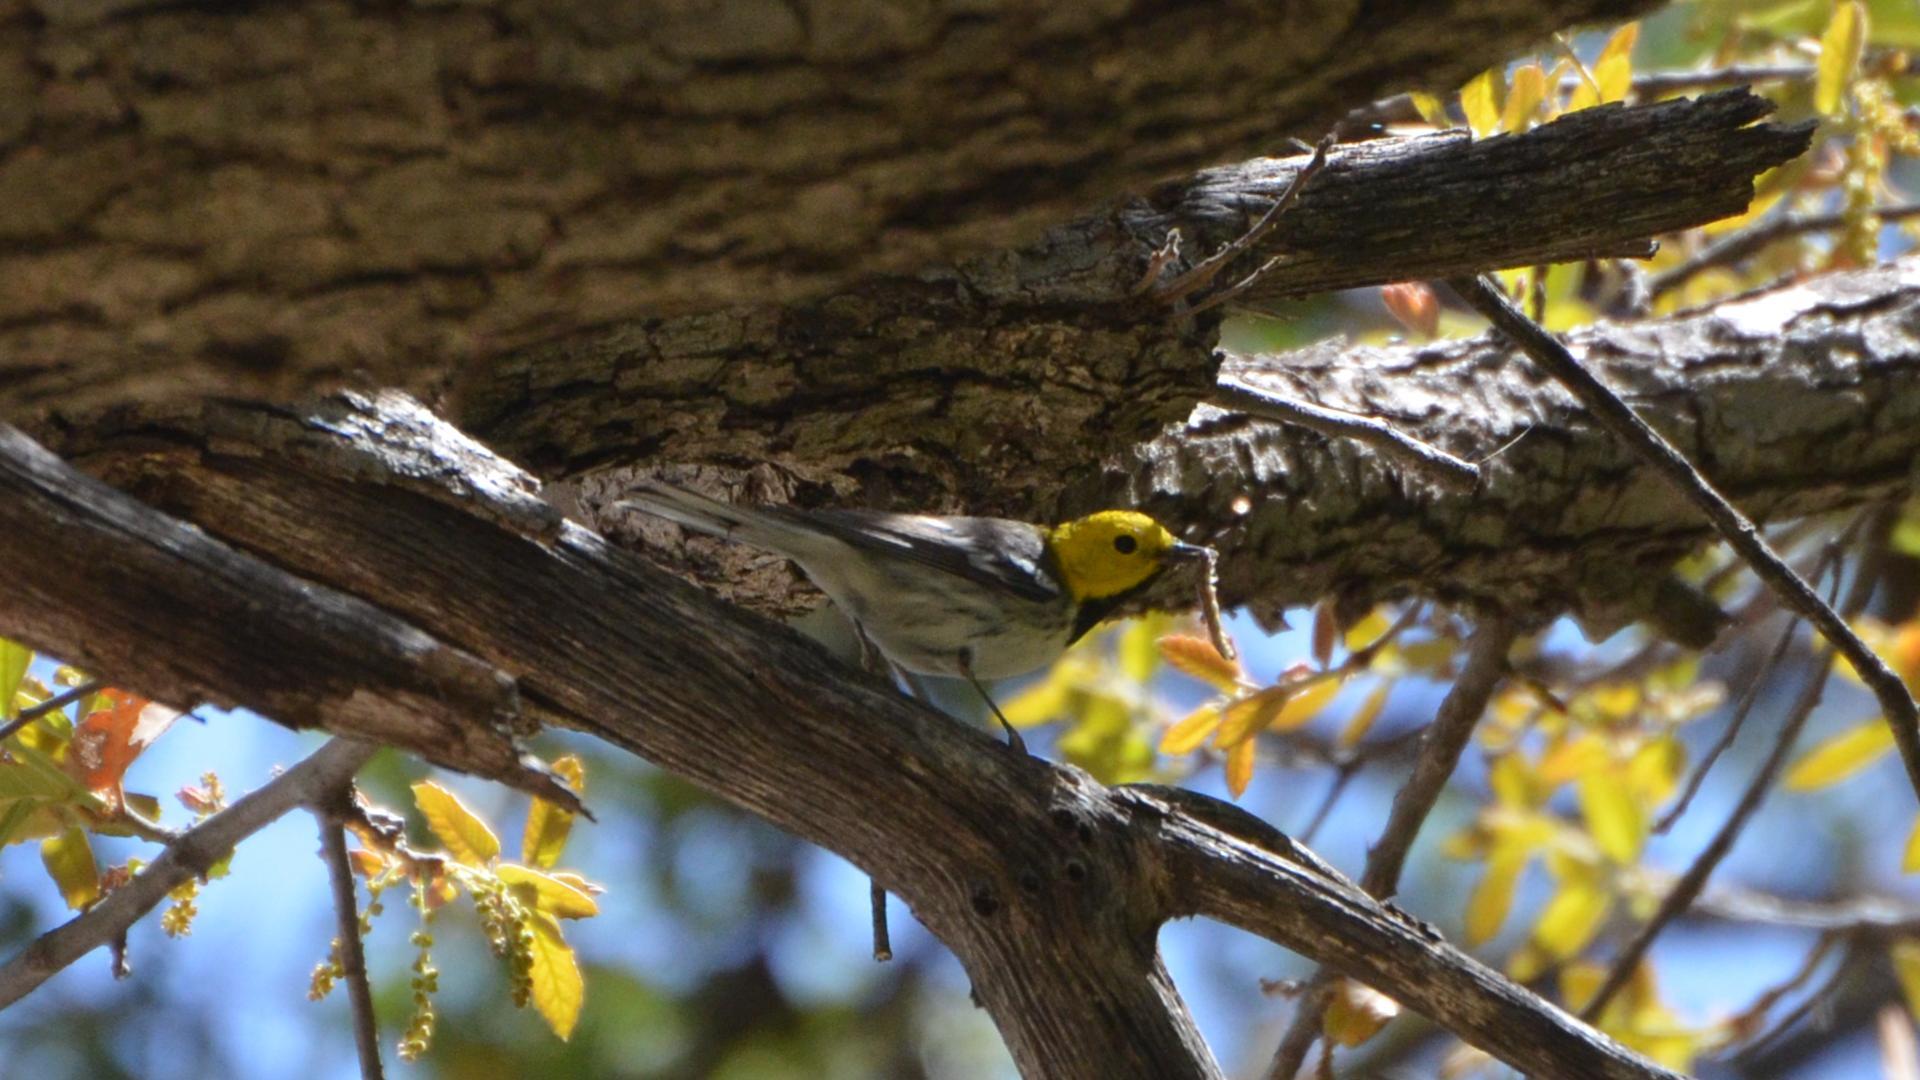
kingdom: Animalia
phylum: Chordata
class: Aves
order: Passeriformes
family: Parulidae
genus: Setophaga
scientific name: Setophaga occidentalis
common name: Hermit warbler
